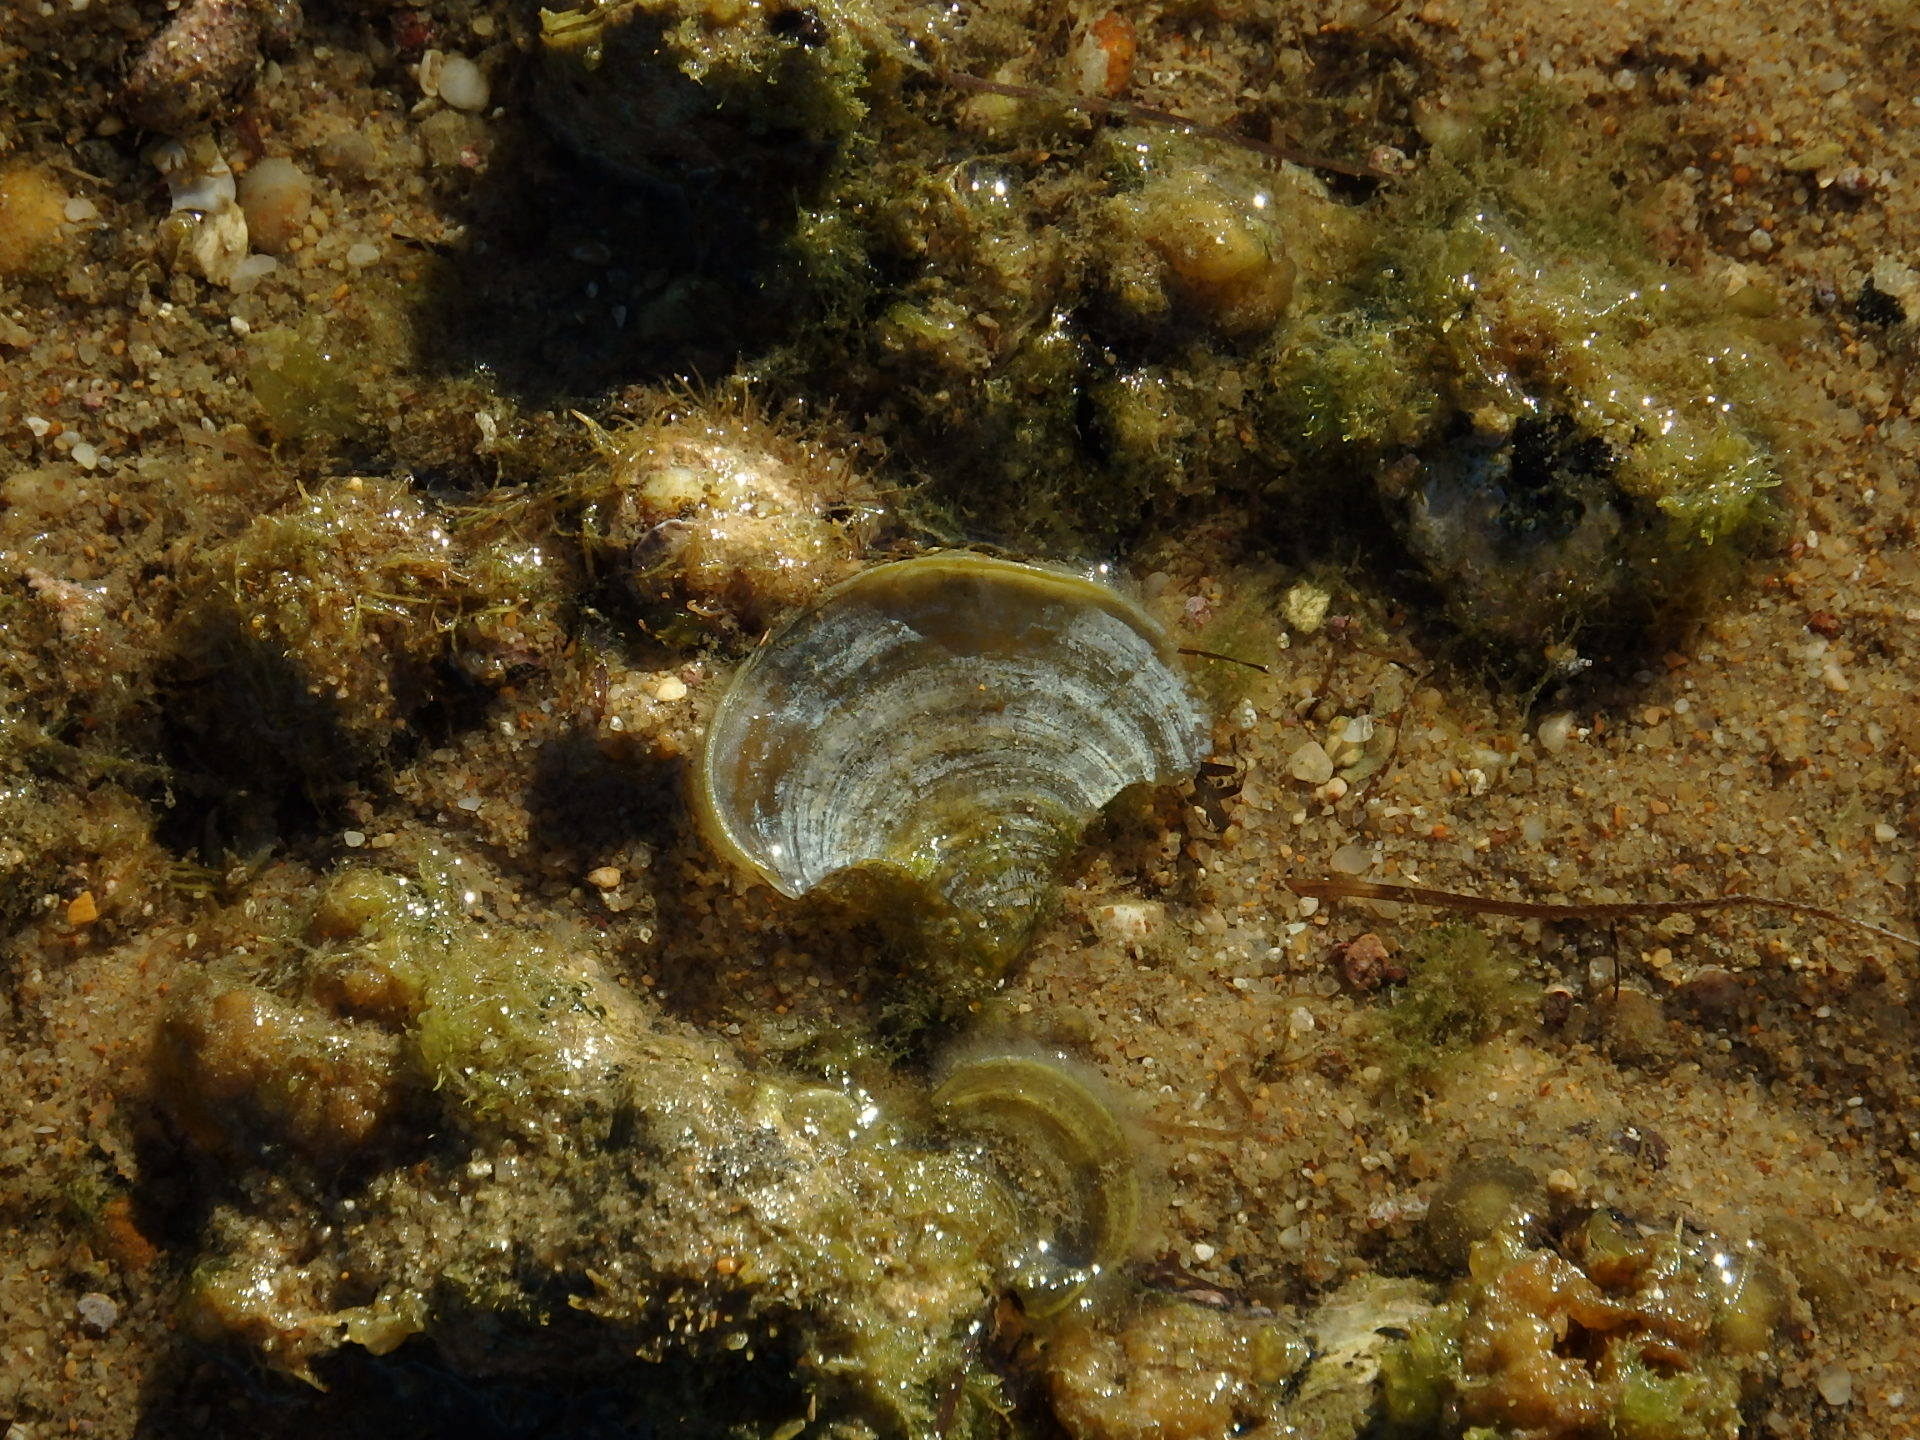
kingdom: Chromista
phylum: Ochrophyta
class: Phaeophyceae
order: Dictyotales
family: Dictyotaceae
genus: Padina
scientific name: Padina pavonica
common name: Turkey feather alga
